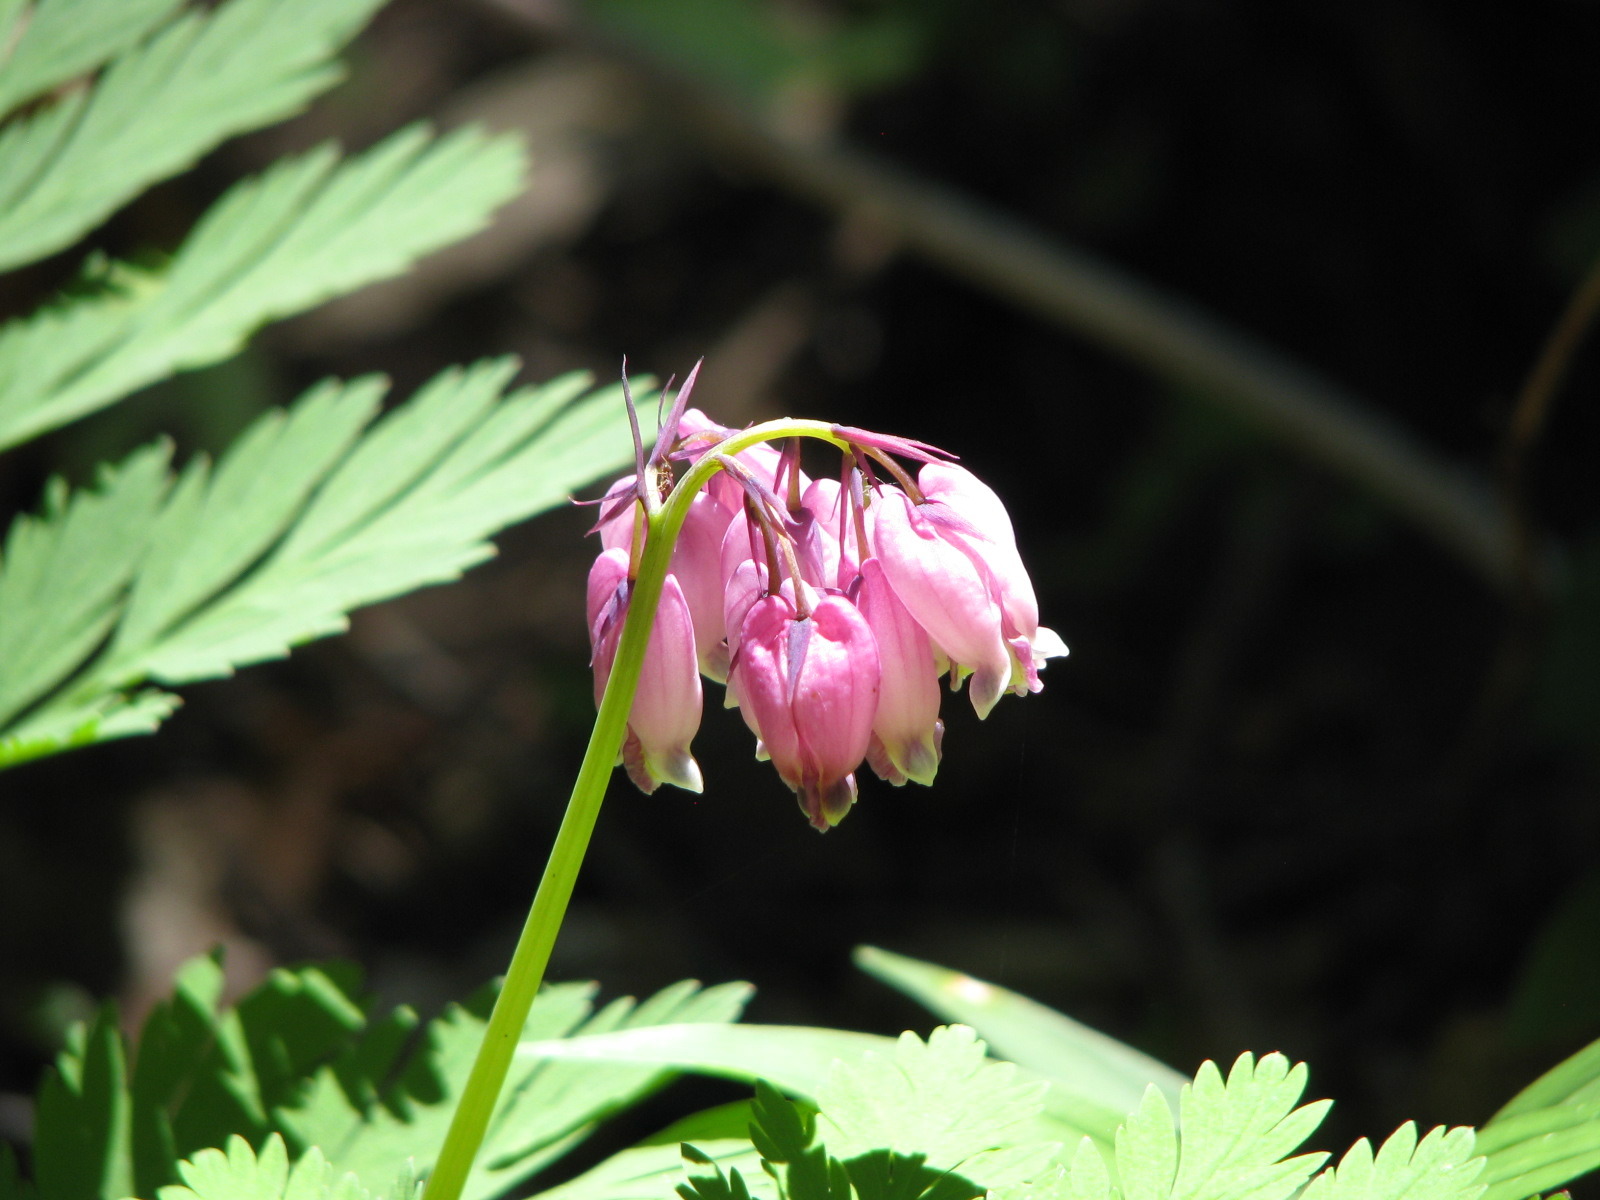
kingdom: Plantae
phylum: Tracheophyta
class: Magnoliopsida
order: Ranunculales
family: Papaveraceae
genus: Dicentra
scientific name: Dicentra formosa
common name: Bleeding-heart
